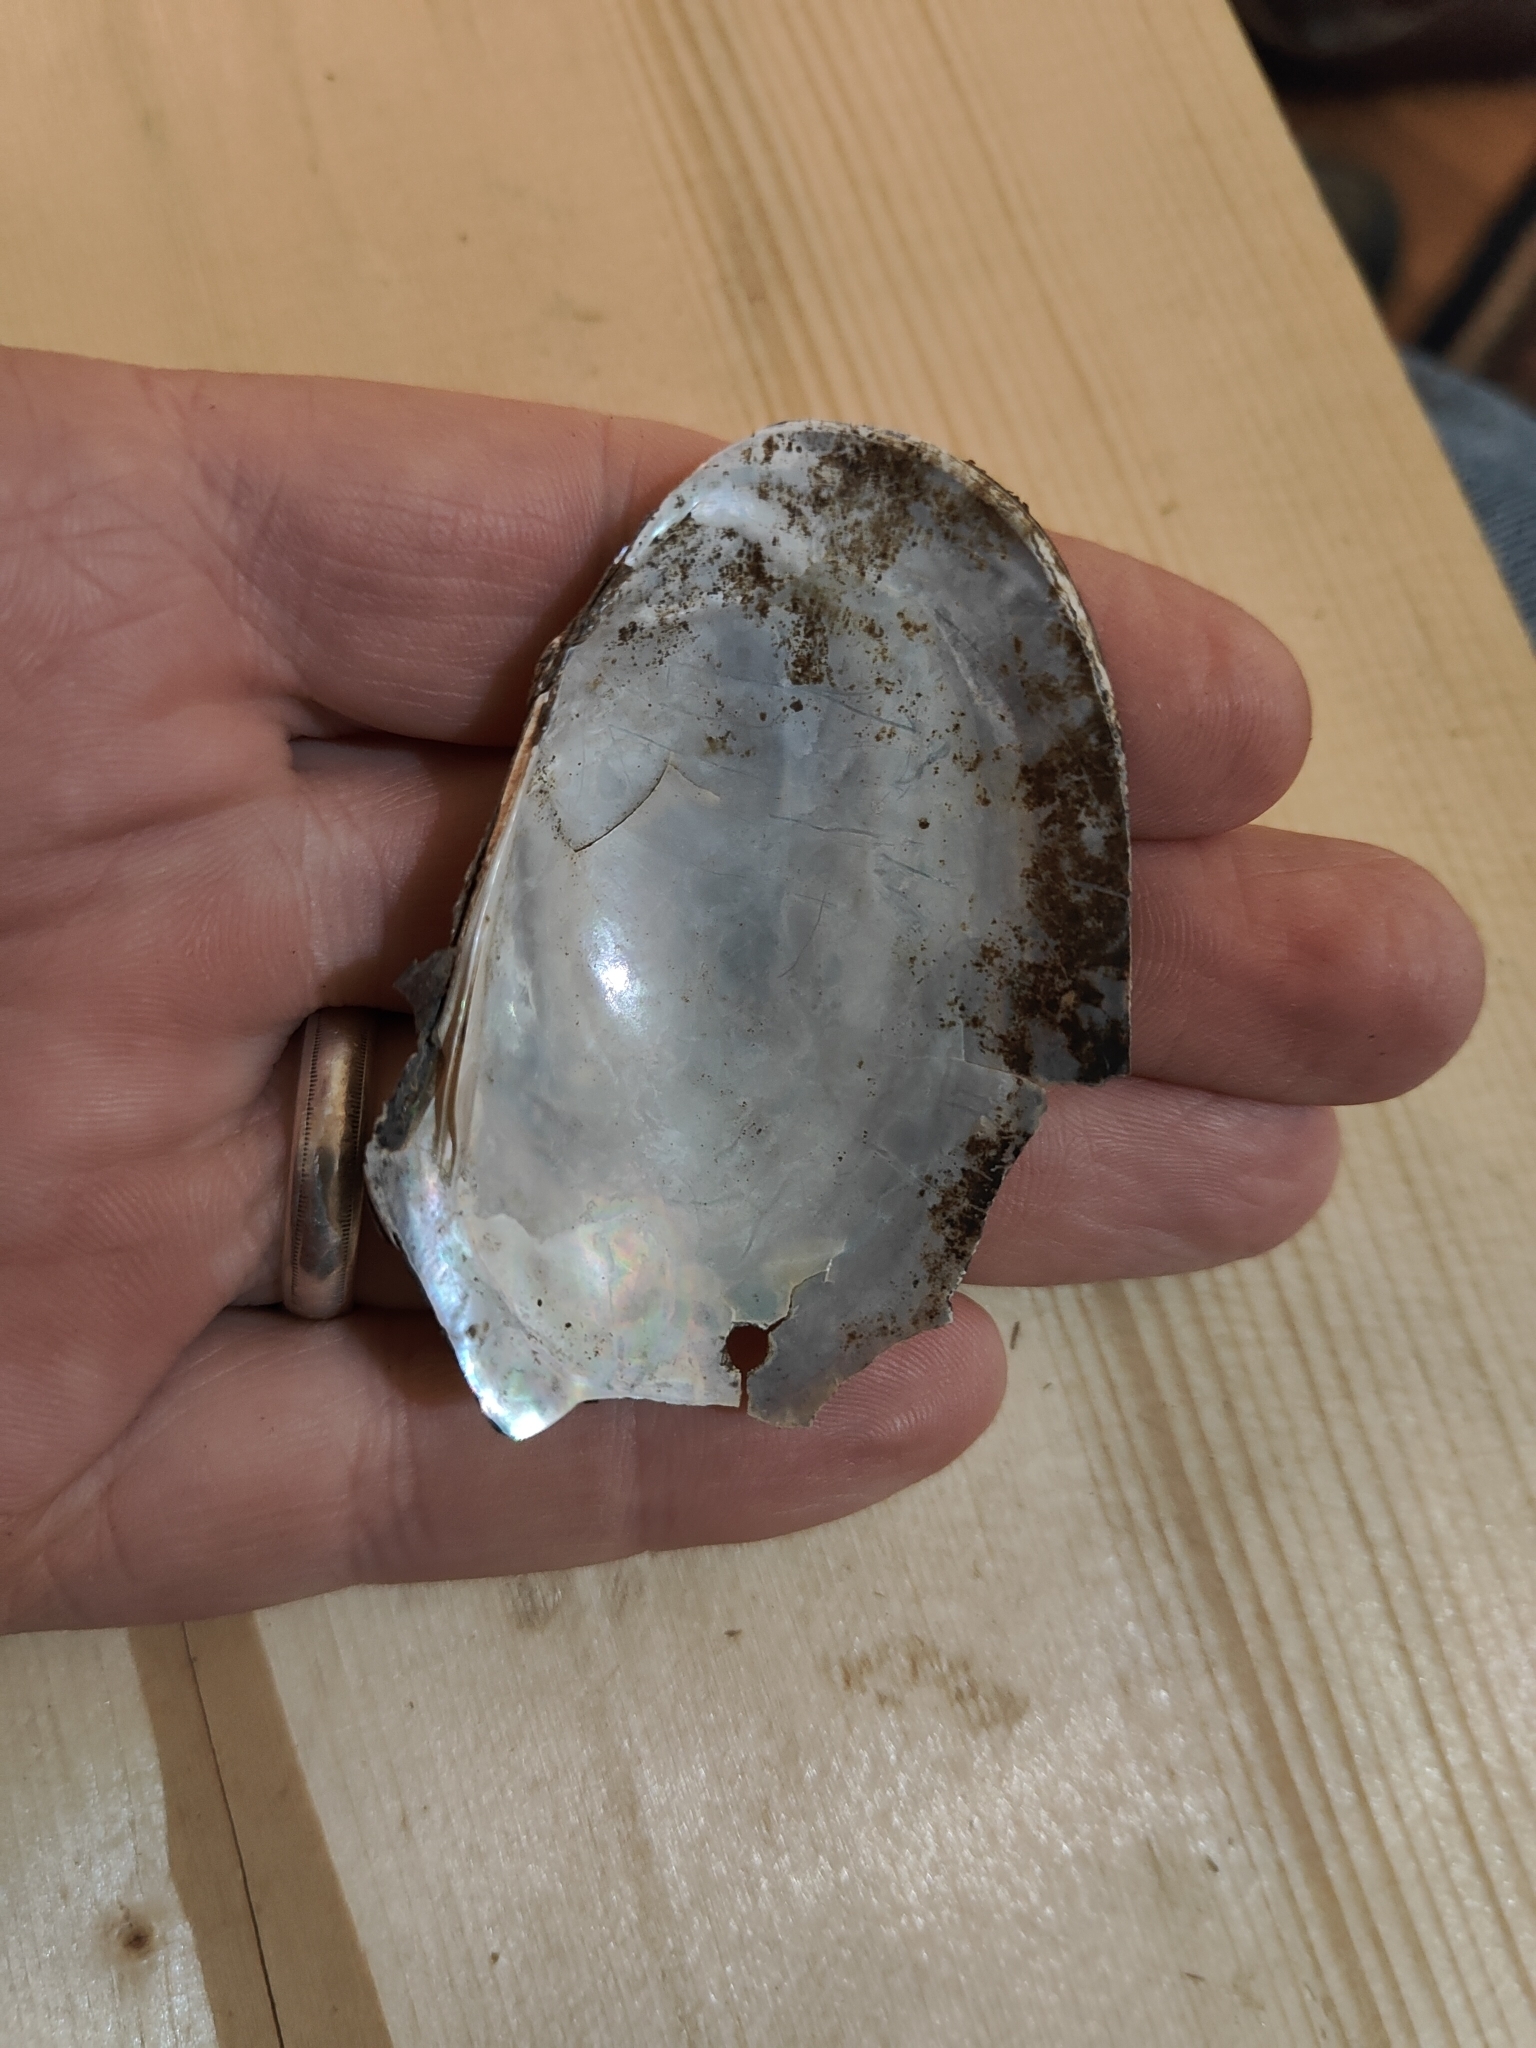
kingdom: Animalia
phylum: Mollusca
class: Bivalvia
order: Unionida
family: Unionidae
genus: Potamilus
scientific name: Potamilus fragilis
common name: Fragile papershell
